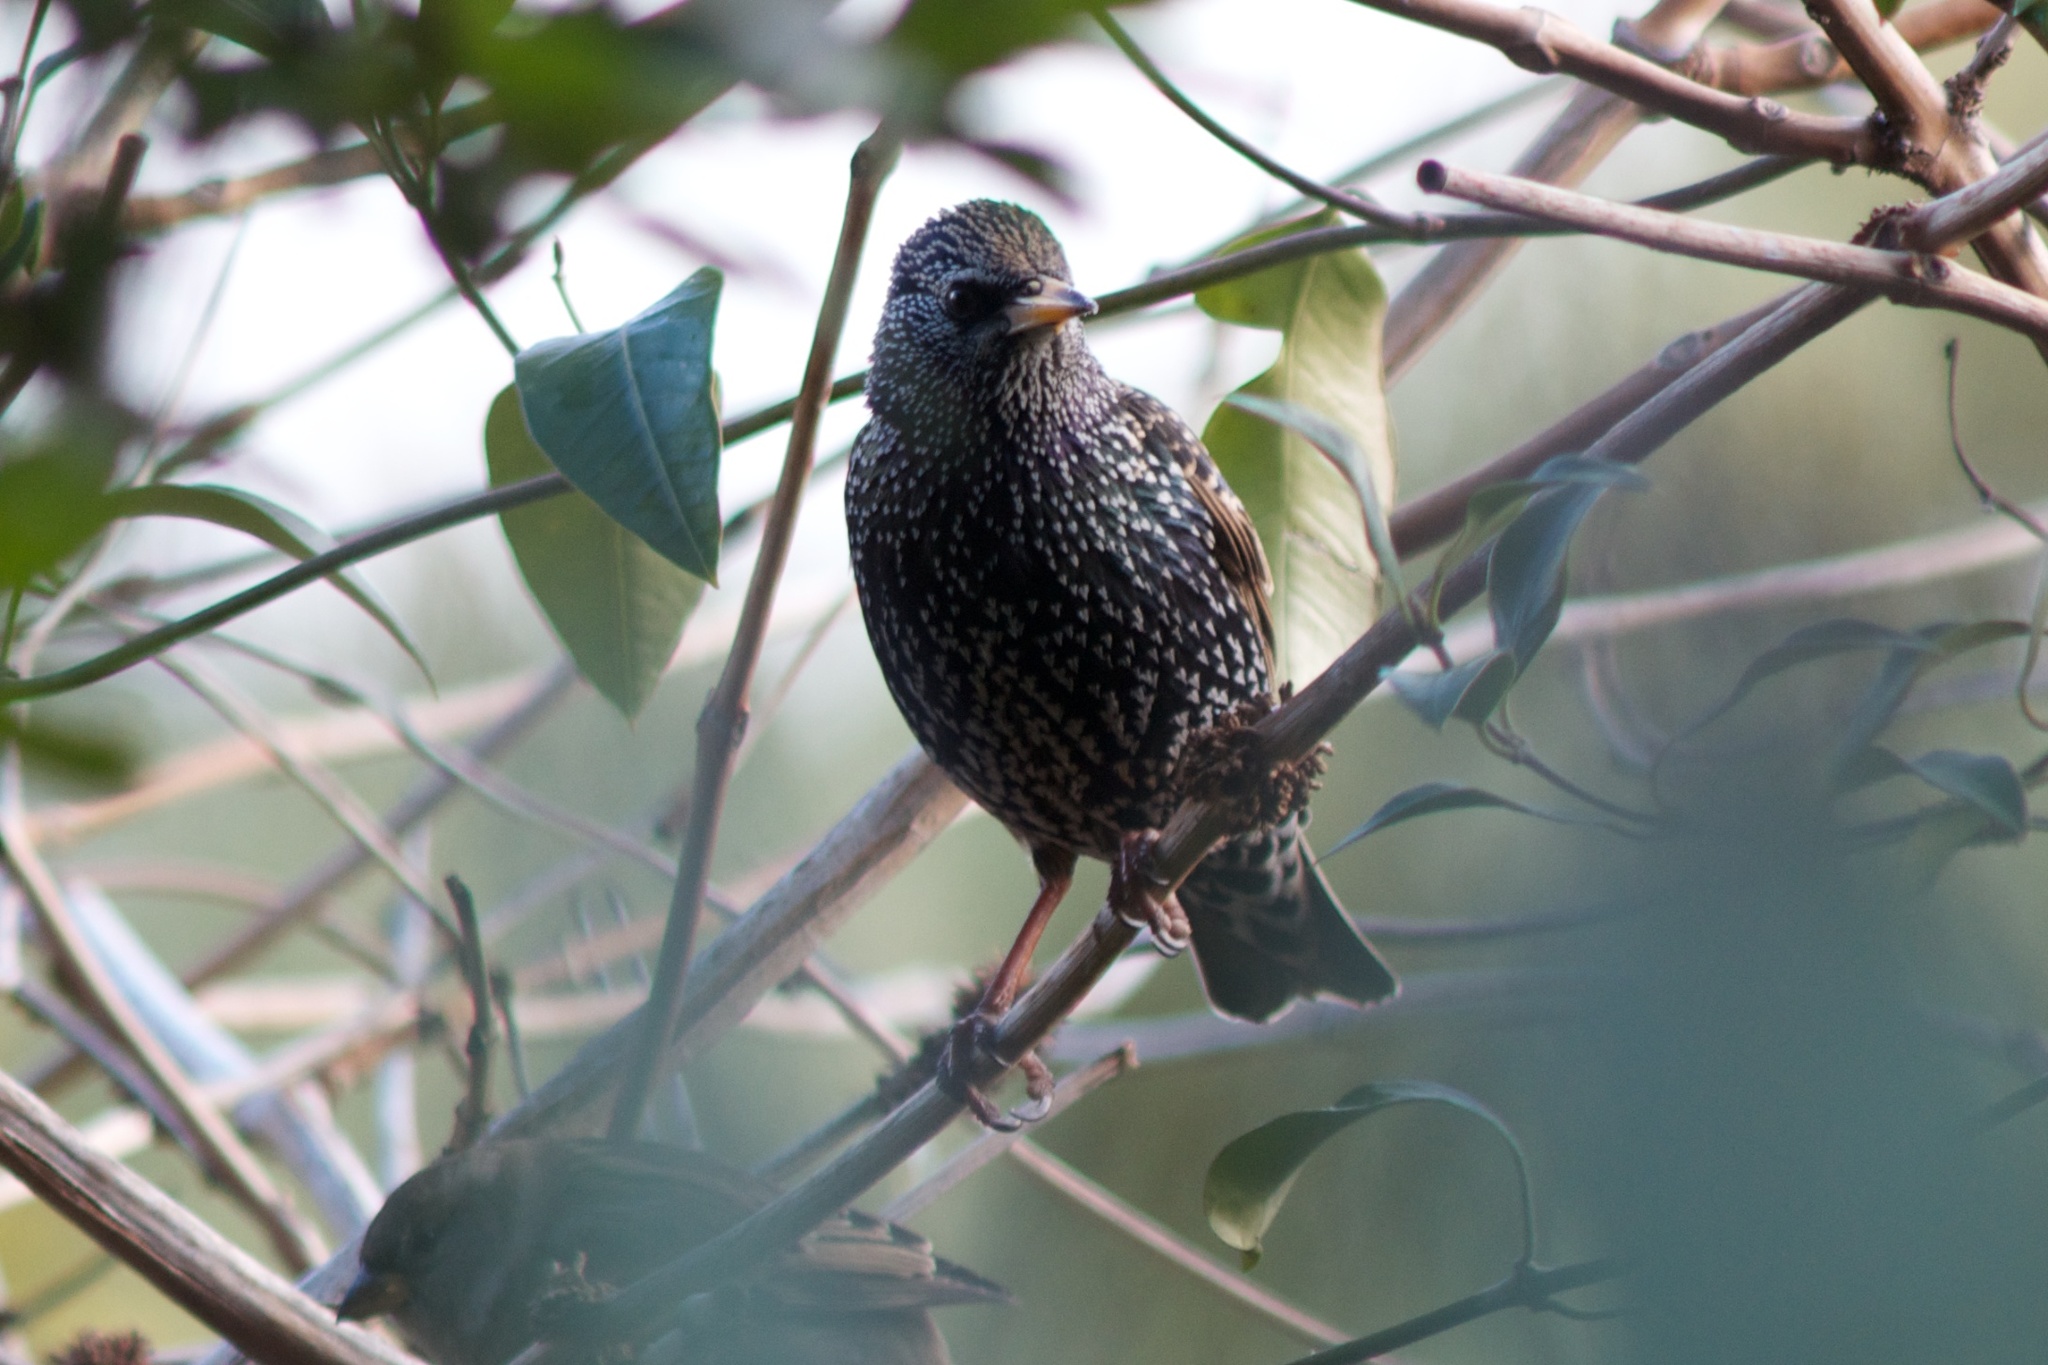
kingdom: Animalia
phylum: Chordata
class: Aves
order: Passeriformes
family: Sturnidae
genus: Sturnus
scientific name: Sturnus vulgaris
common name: Common starling
